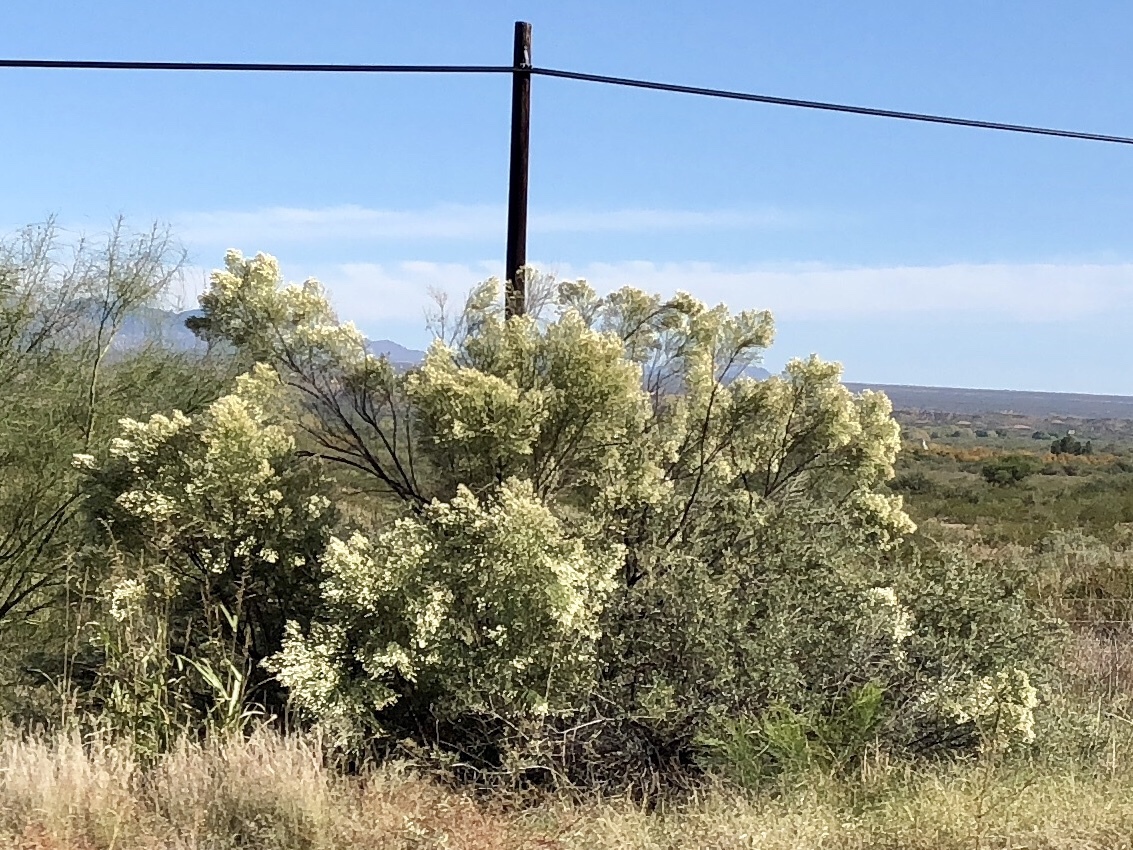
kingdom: Plantae
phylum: Tracheophyta
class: Magnoliopsida
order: Asterales
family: Asteraceae
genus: Baccharis
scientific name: Baccharis sarothroides
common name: Desert-broom
